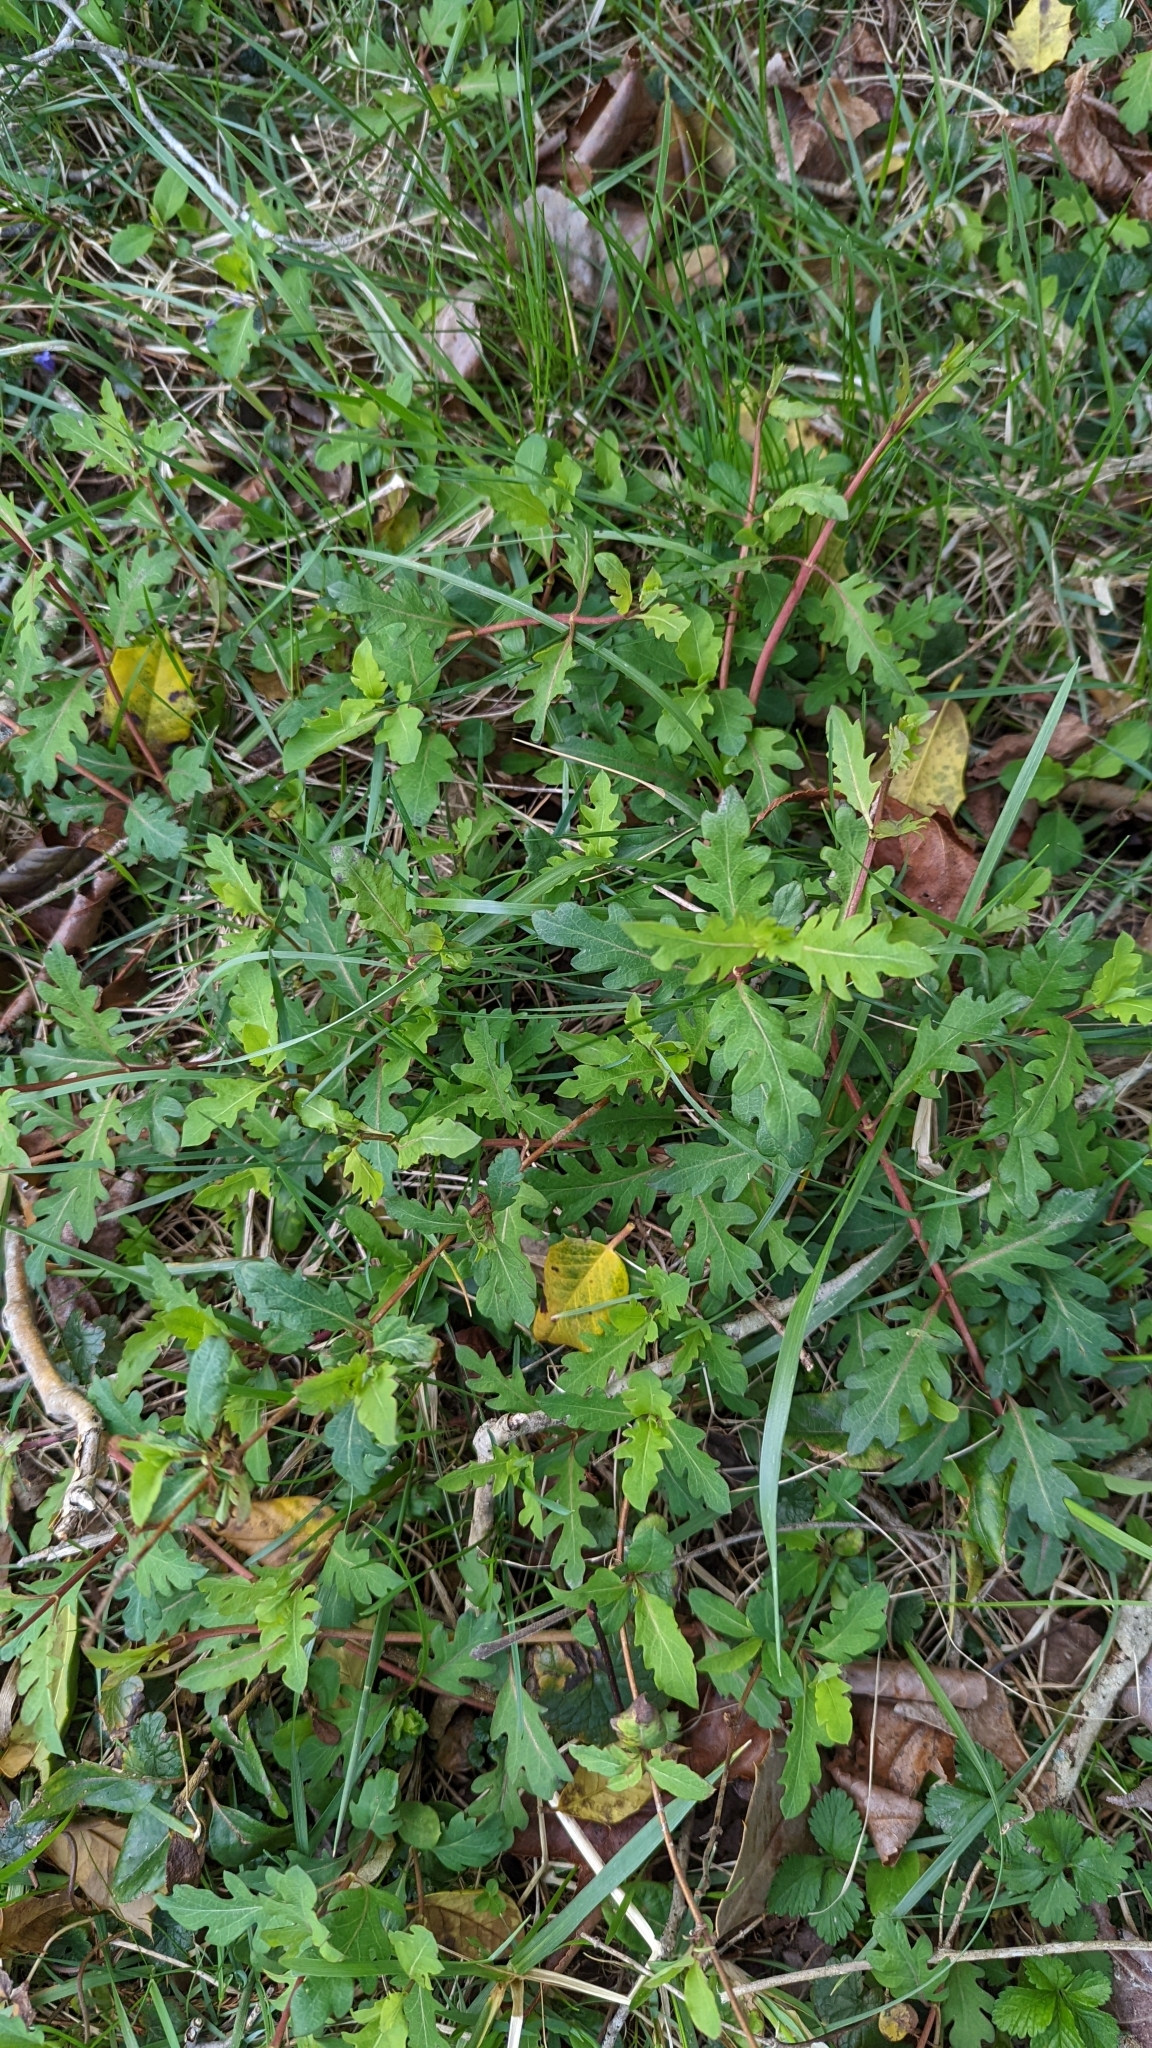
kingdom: Plantae
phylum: Tracheophyta
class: Magnoliopsida
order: Dipsacales
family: Caprifoliaceae
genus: Lonicera
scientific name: Lonicera japonica
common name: Japanese honeysuckle
